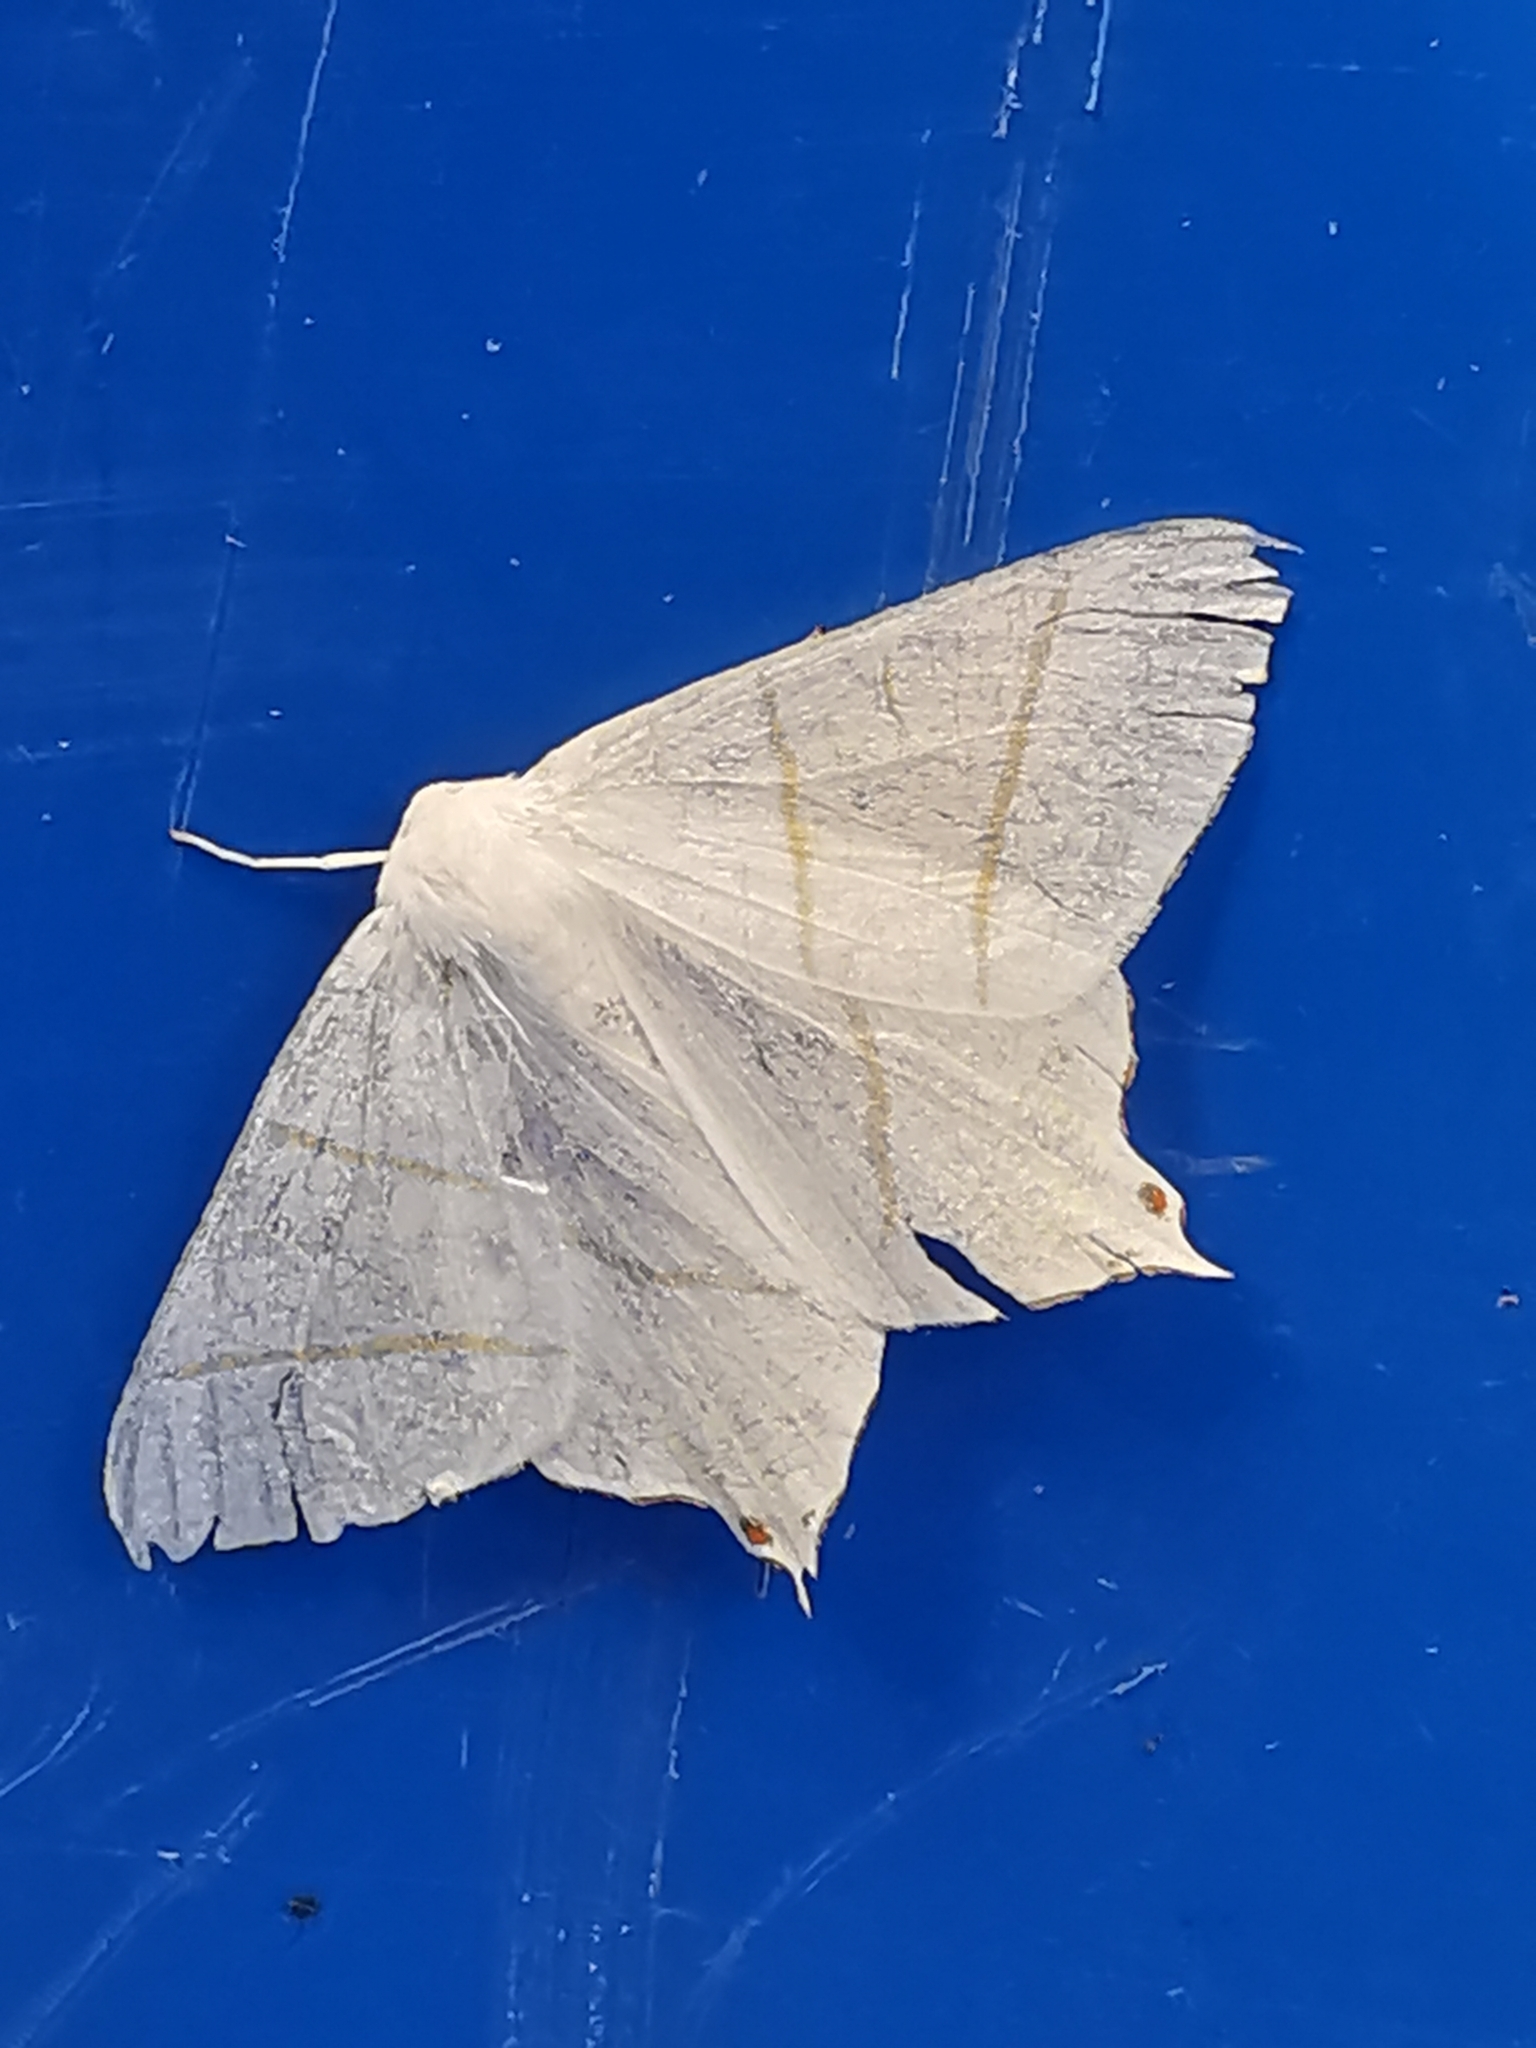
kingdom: Animalia
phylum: Arthropoda
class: Insecta
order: Lepidoptera
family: Geometridae
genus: Ourapteryx
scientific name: Ourapteryx sambucaria
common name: Swallow-tailed moth
